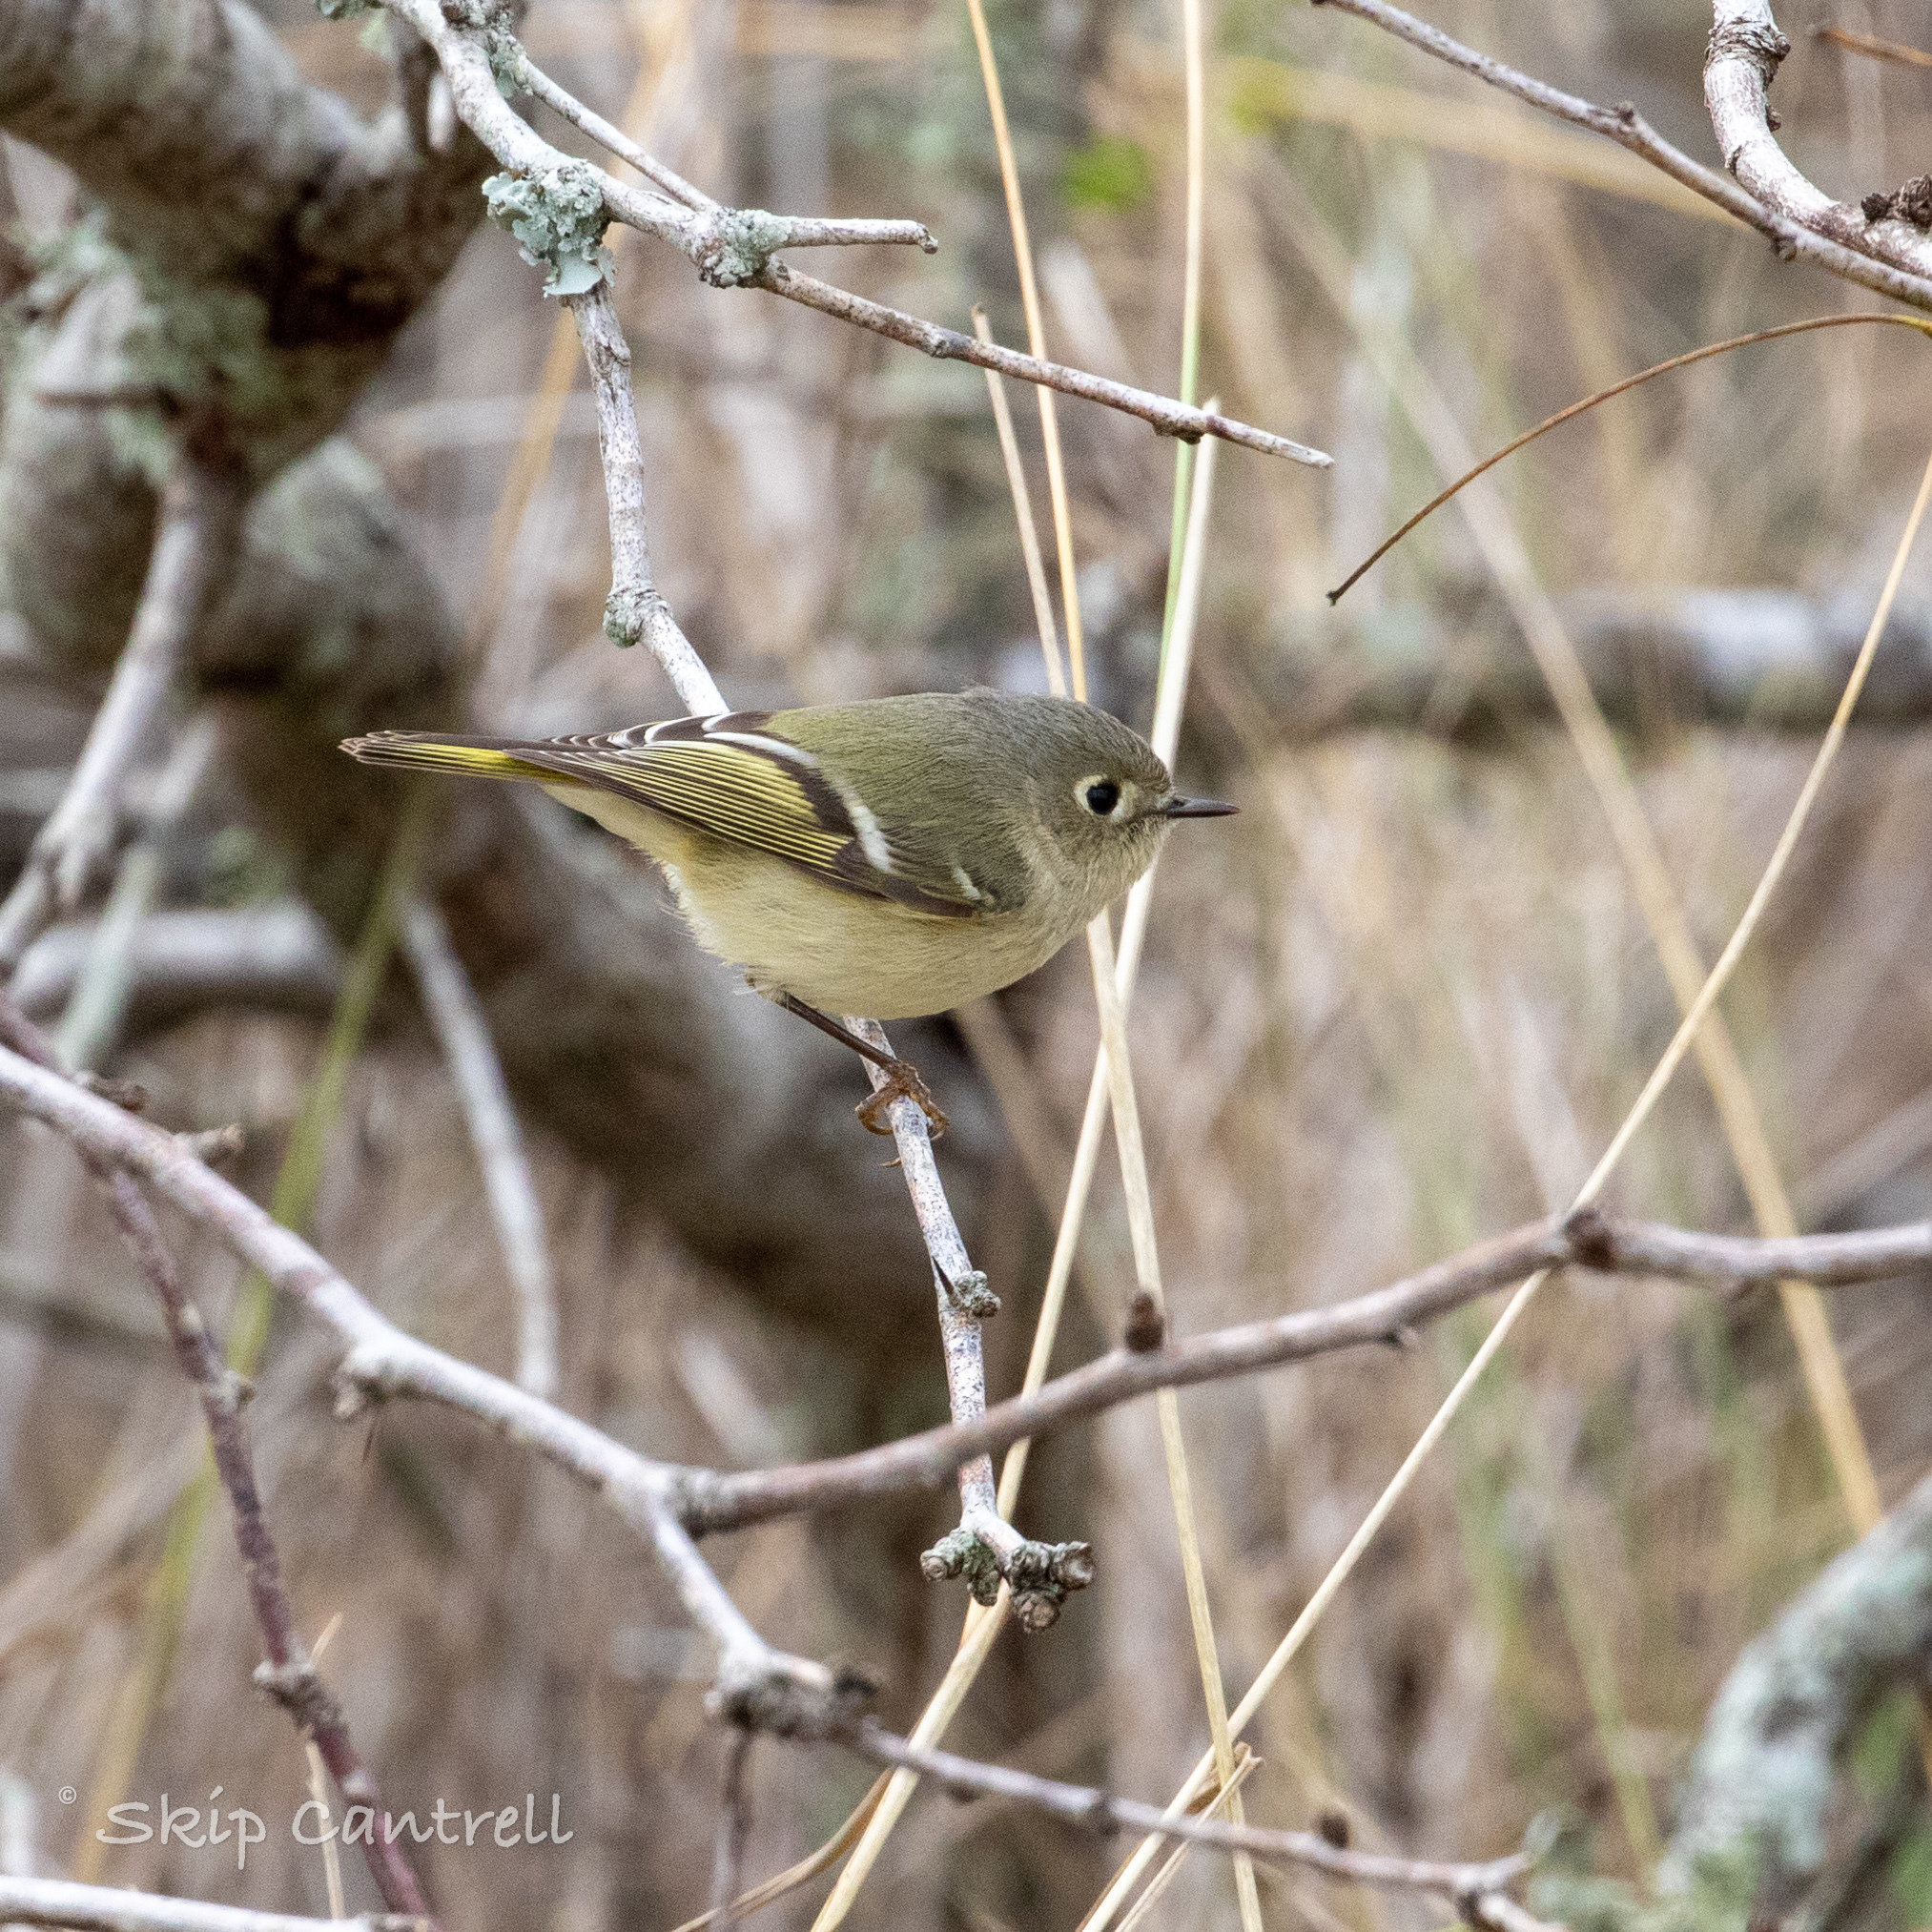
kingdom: Animalia
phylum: Chordata
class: Aves
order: Passeriformes
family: Regulidae
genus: Regulus
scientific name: Regulus calendula
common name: Ruby-crowned kinglet
